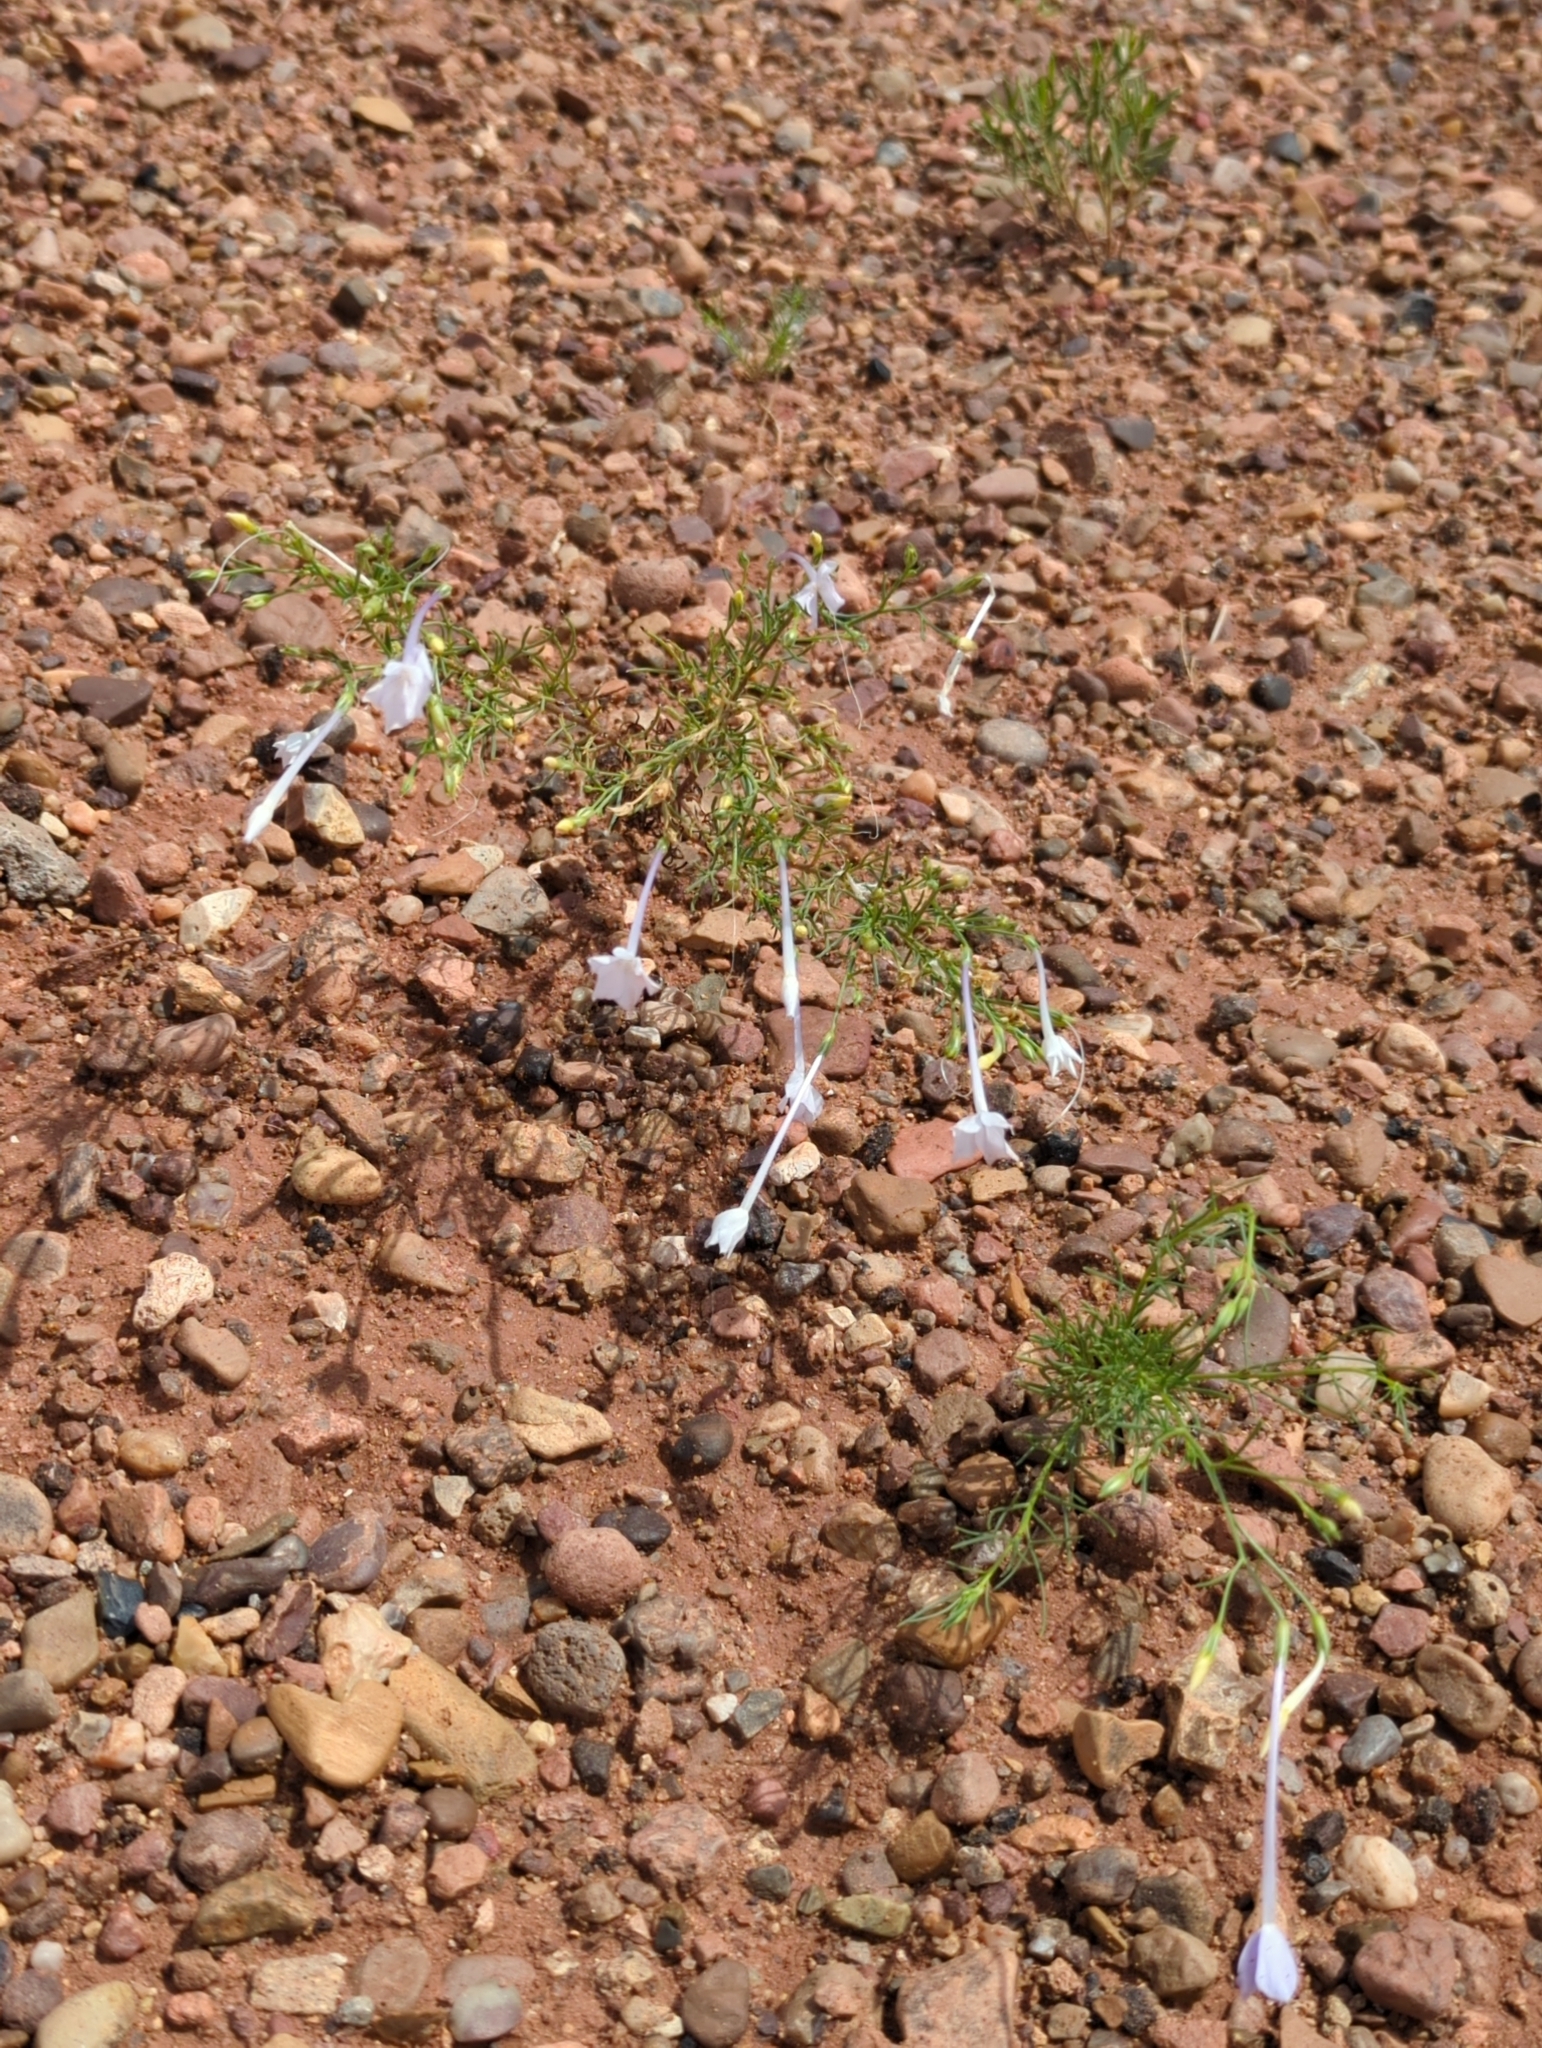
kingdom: Plantae
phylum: Tracheophyta
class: Magnoliopsida
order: Ericales
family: Polemoniaceae
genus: Ipomopsis
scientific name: Ipomopsis longiflora
